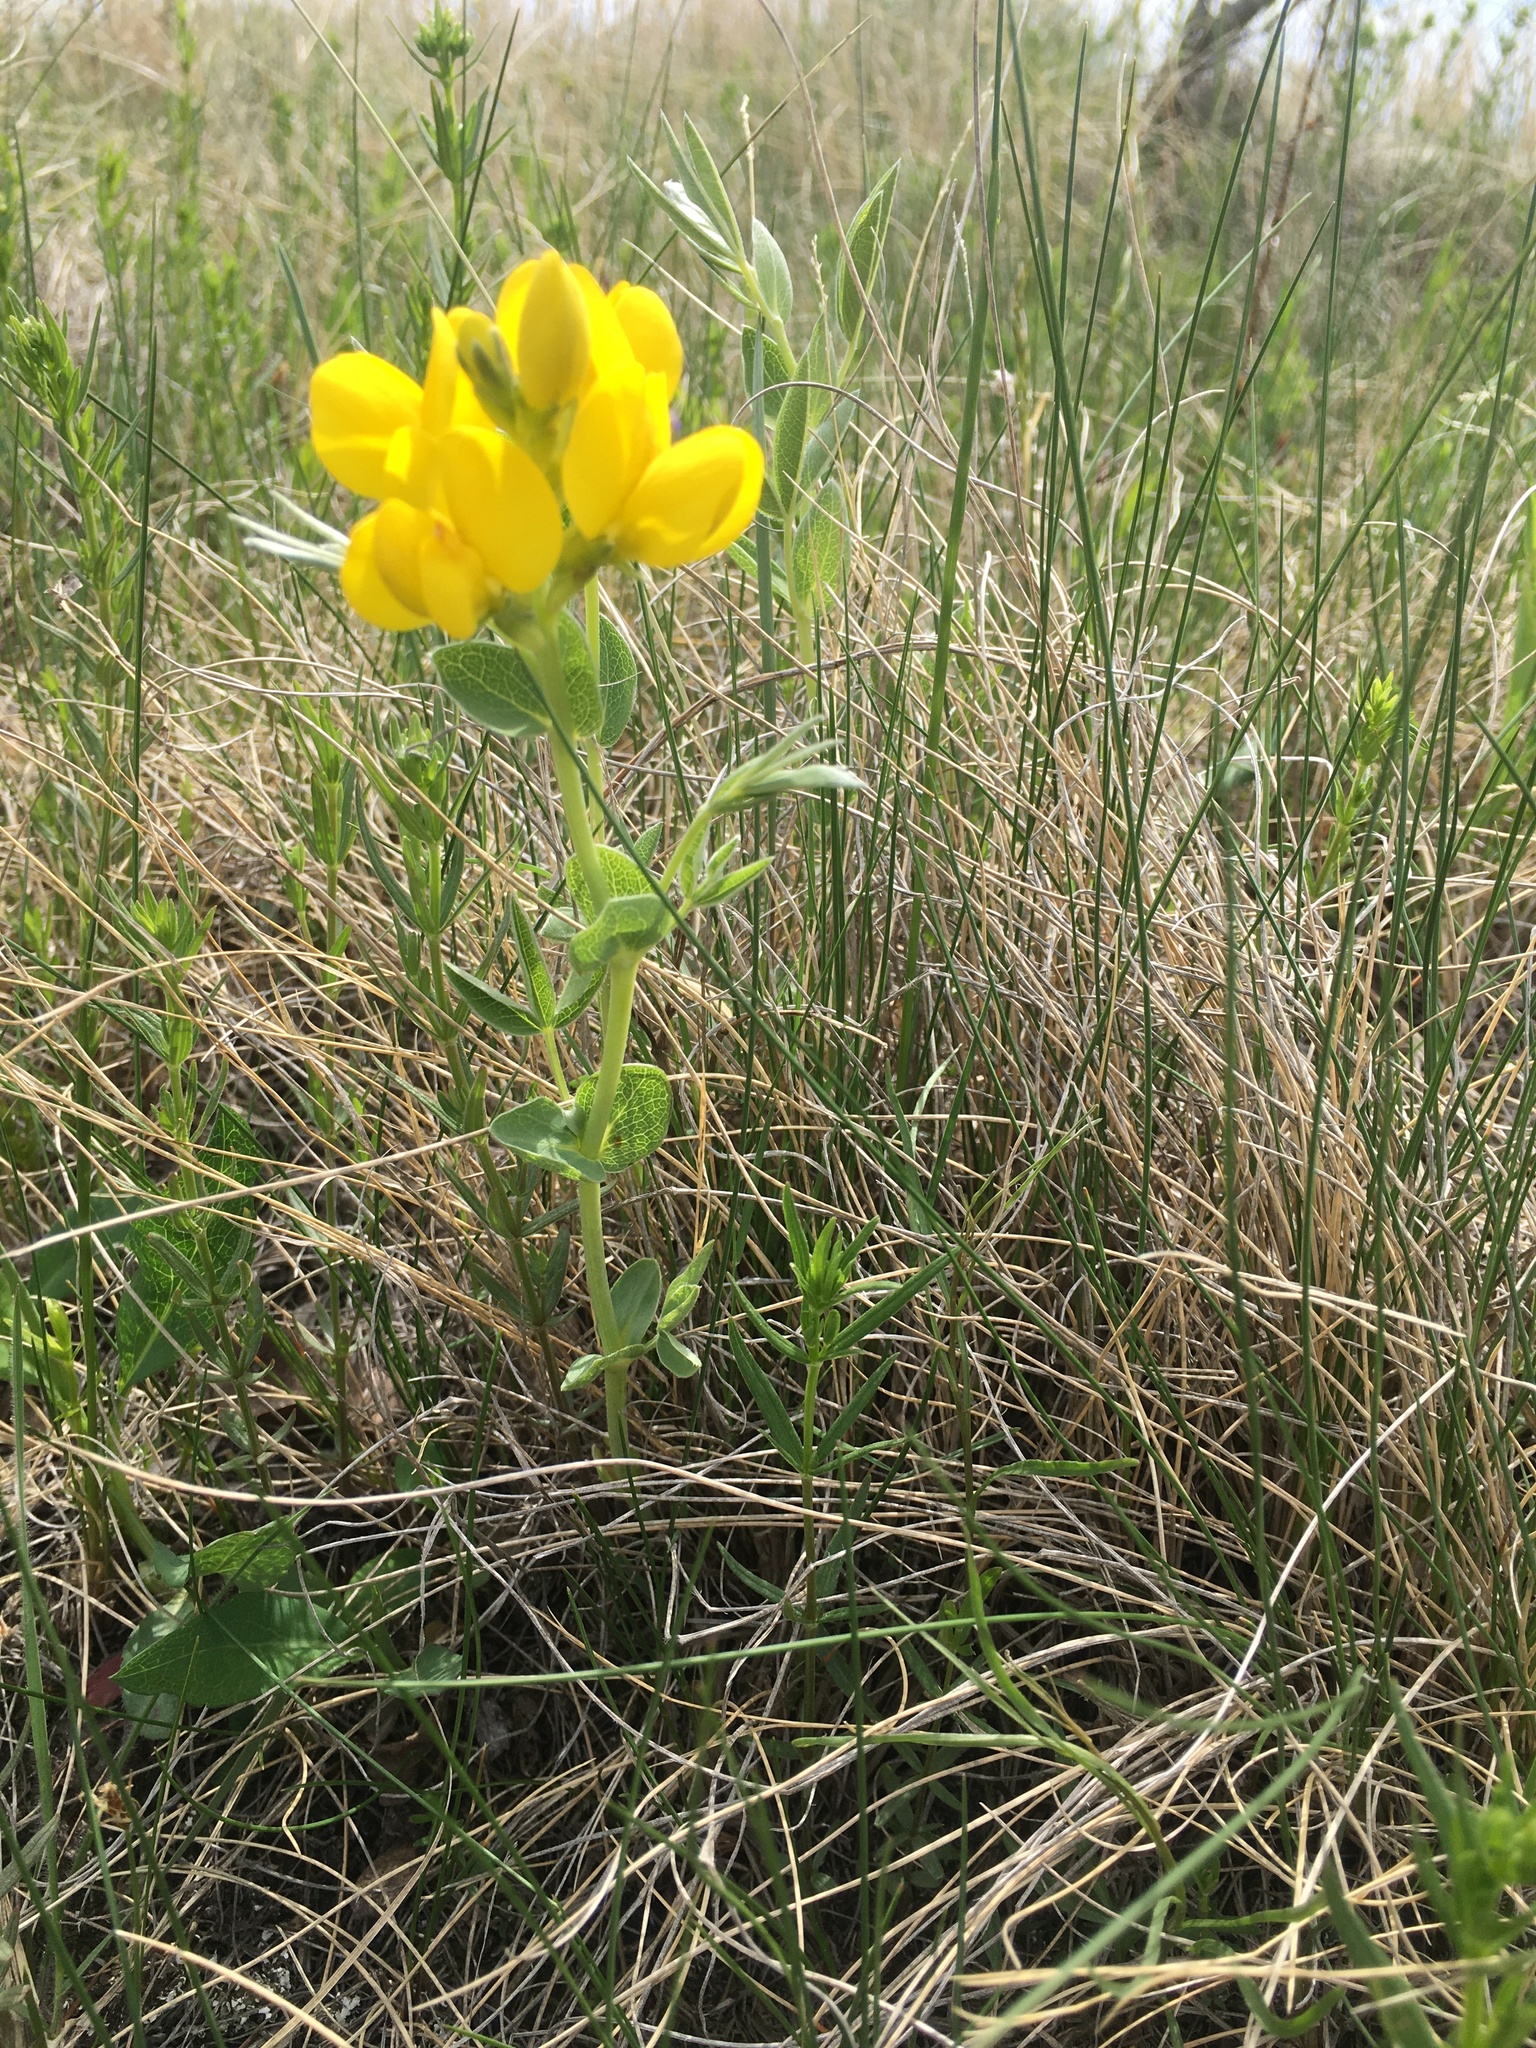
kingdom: Plantae
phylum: Tracheophyta
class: Magnoliopsida
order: Fabales
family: Fabaceae
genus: Thermopsis
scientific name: Thermopsis rhombifolia
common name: Circle-pod-pea
